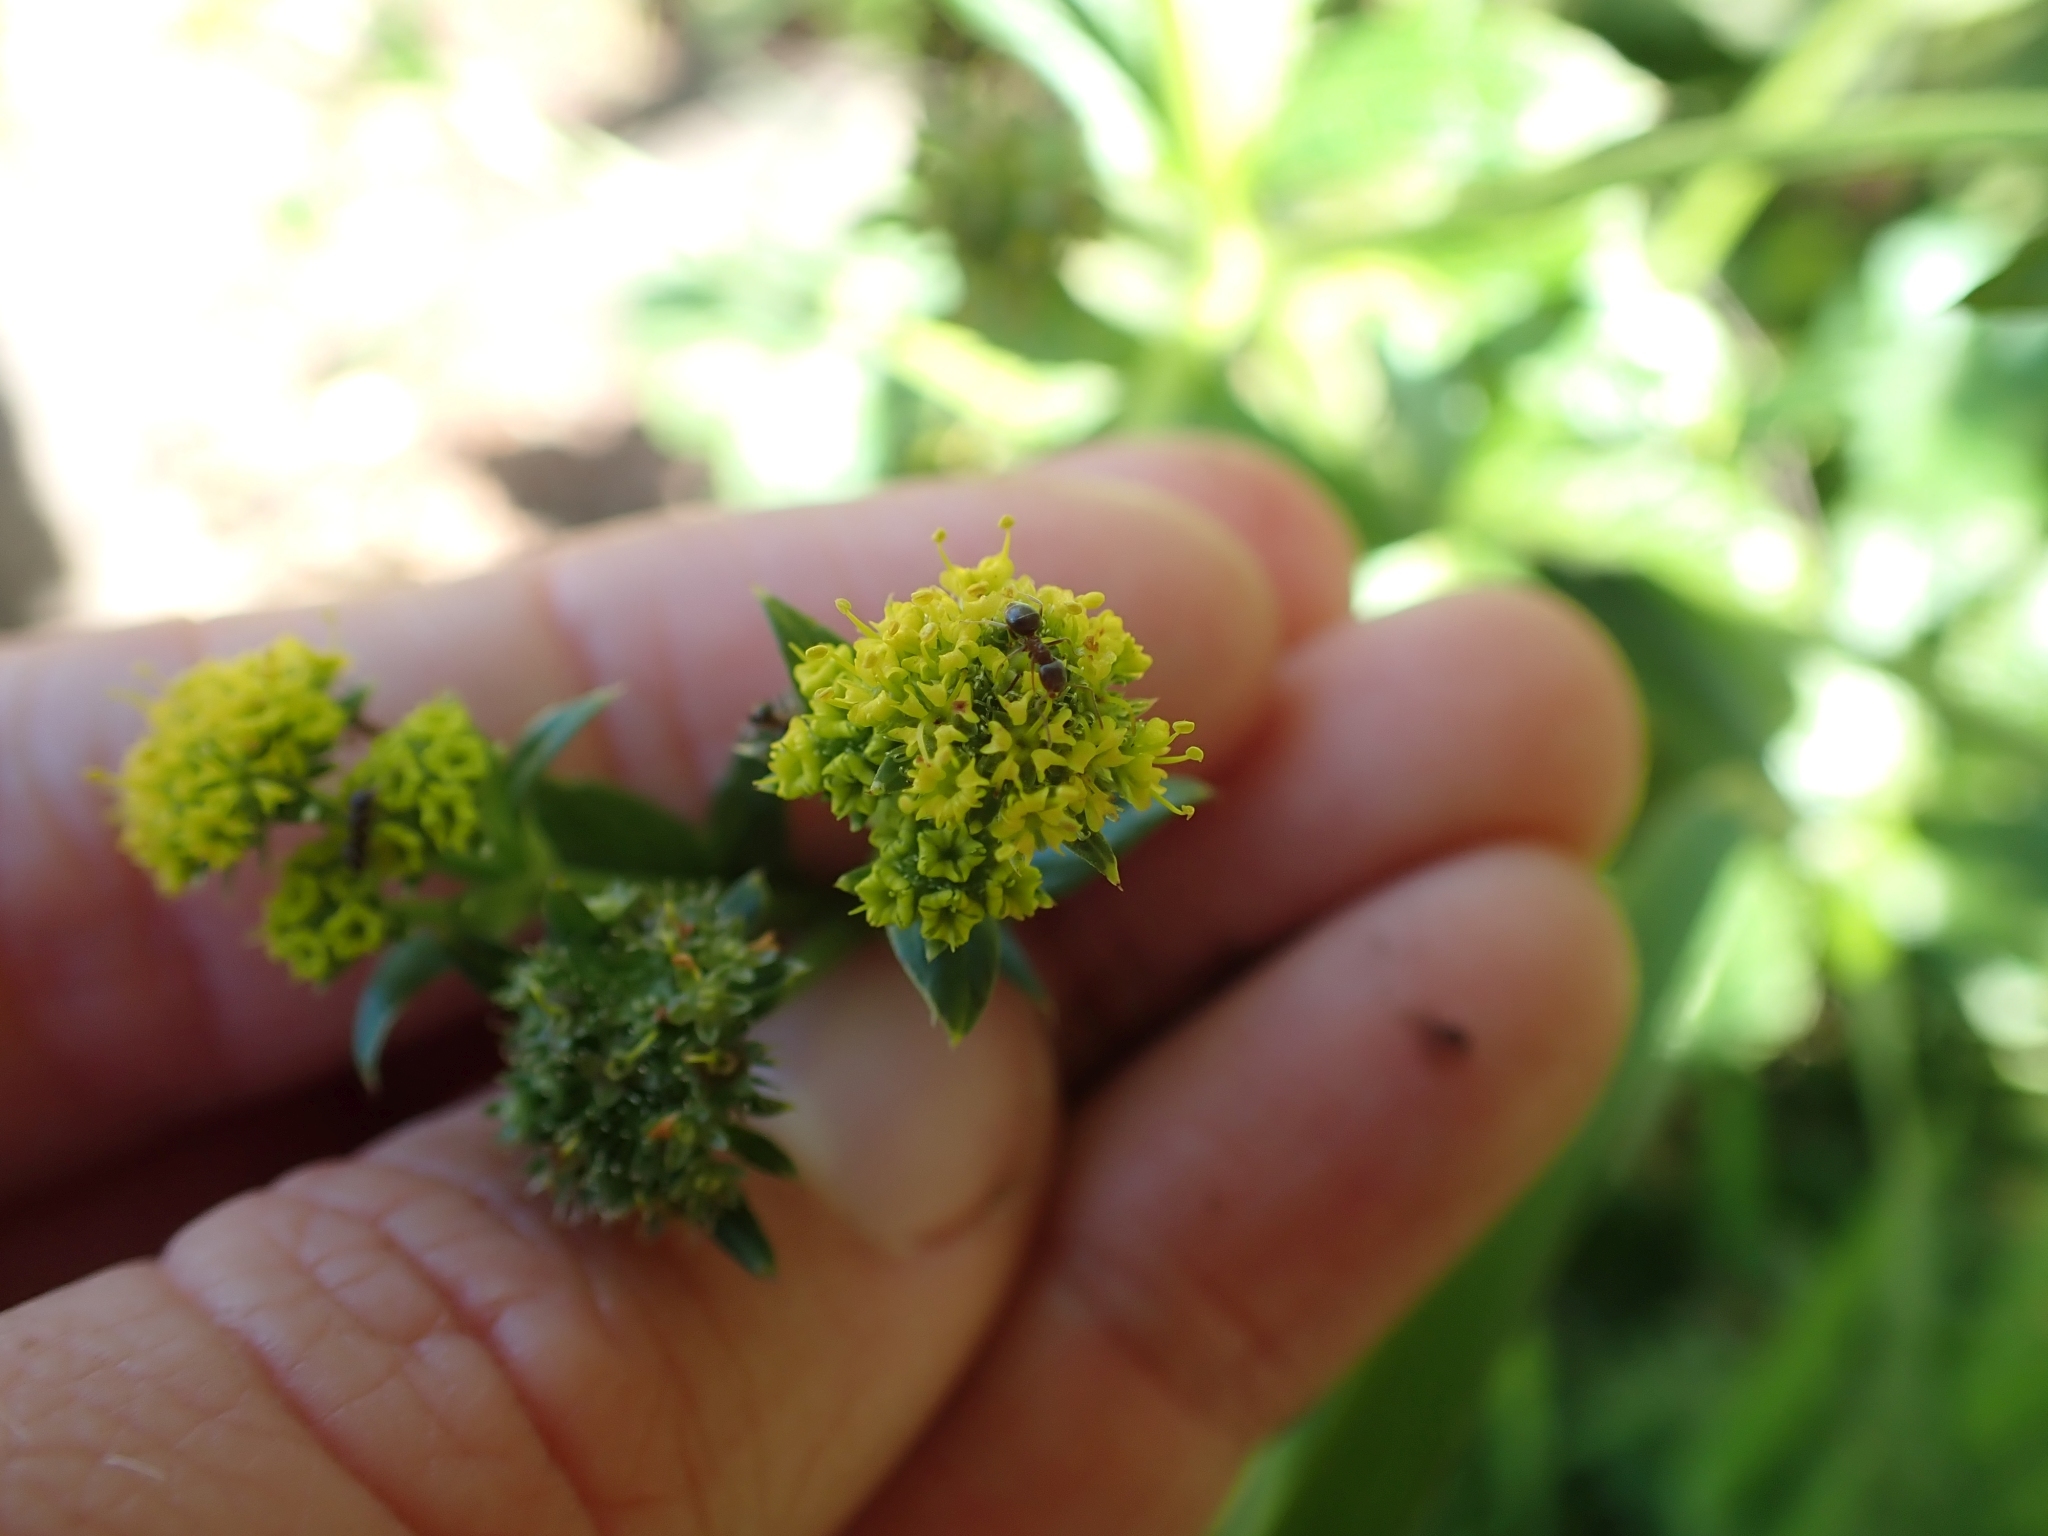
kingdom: Plantae
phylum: Tracheophyta
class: Magnoliopsida
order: Apiales
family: Apiaceae
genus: Sanicula
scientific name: Sanicula crassicaulis
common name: Western snakeroot
